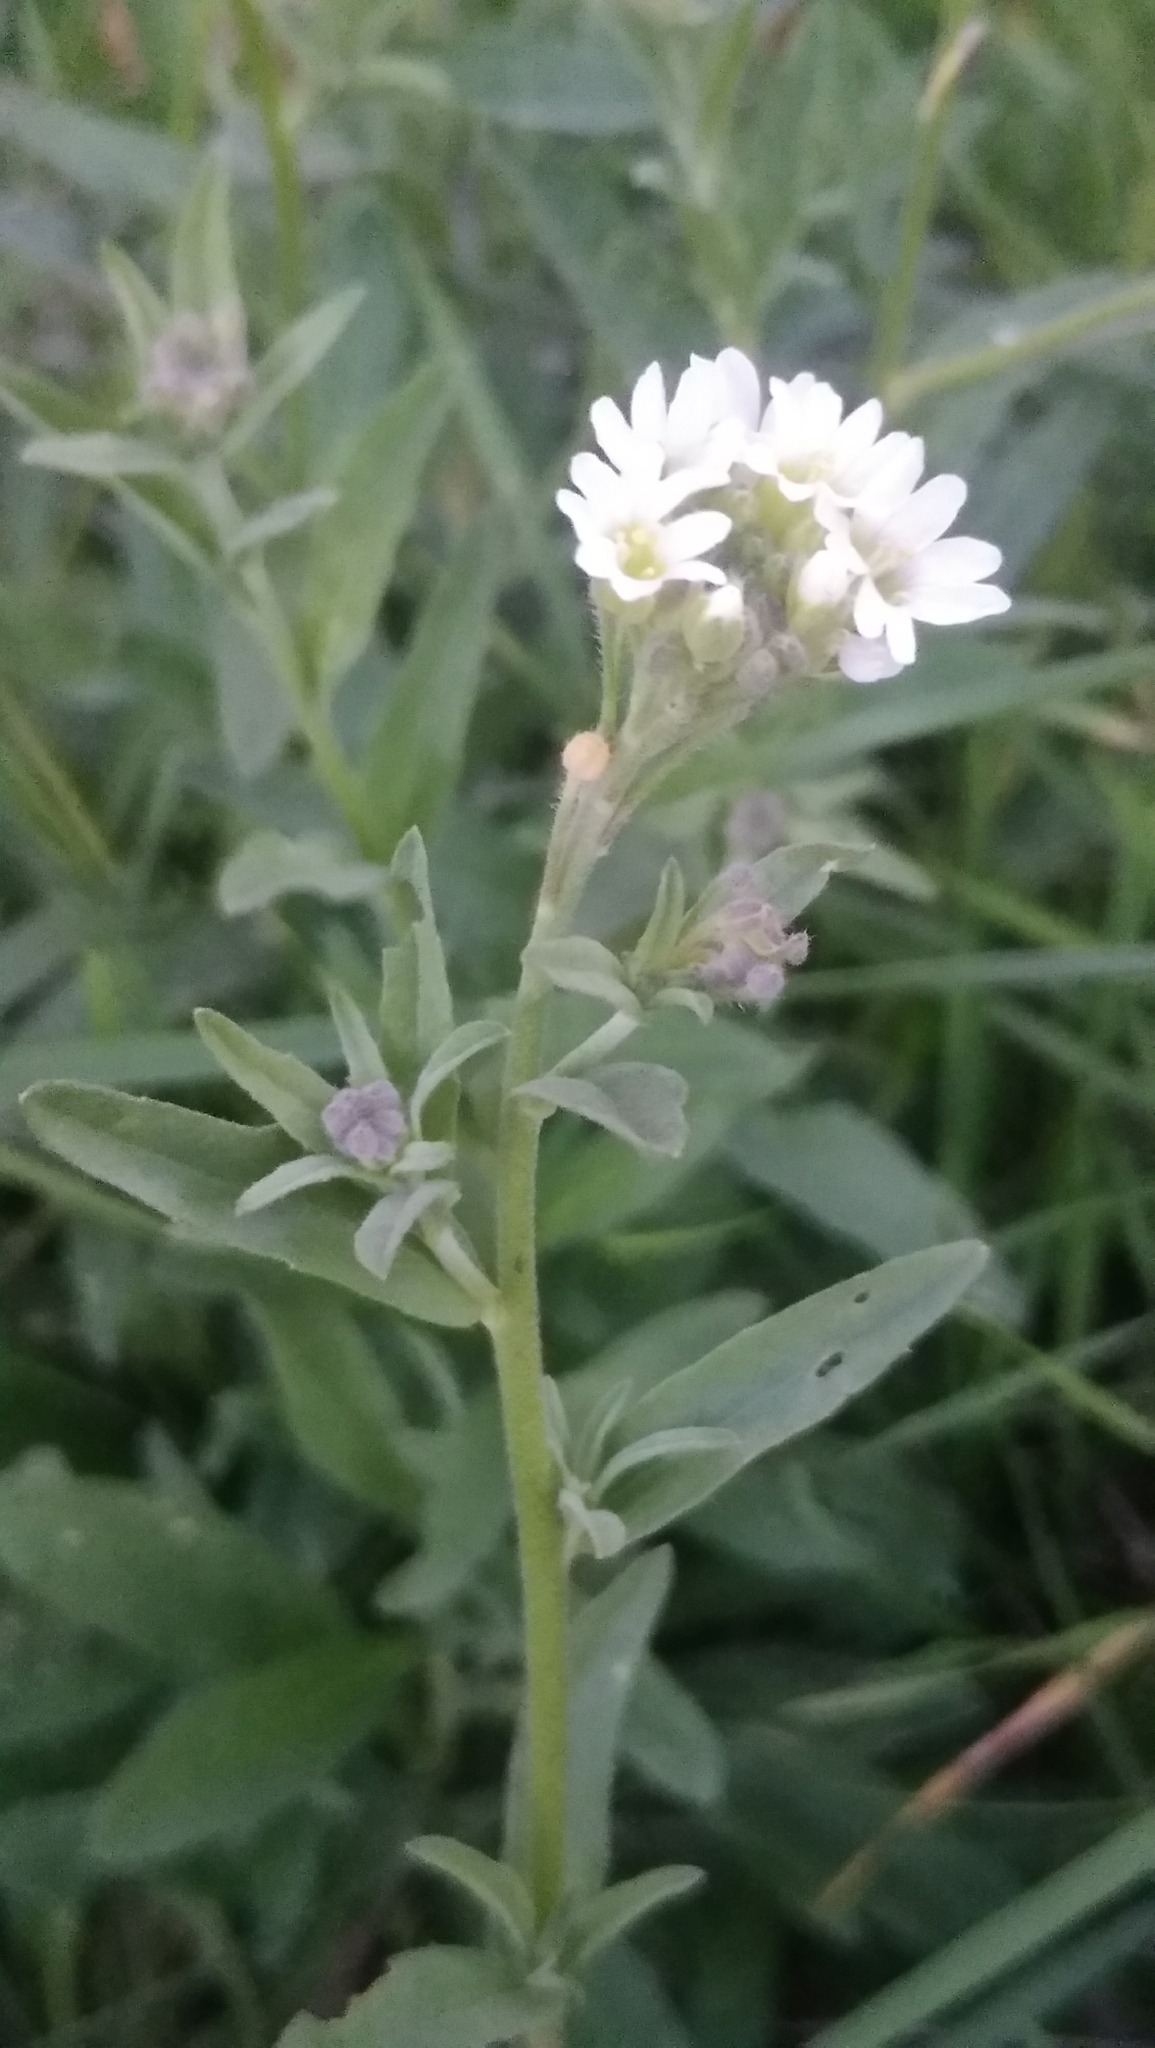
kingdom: Plantae
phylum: Tracheophyta
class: Magnoliopsida
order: Brassicales
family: Brassicaceae
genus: Berteroa
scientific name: Berteroa incana
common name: Hoary alison
